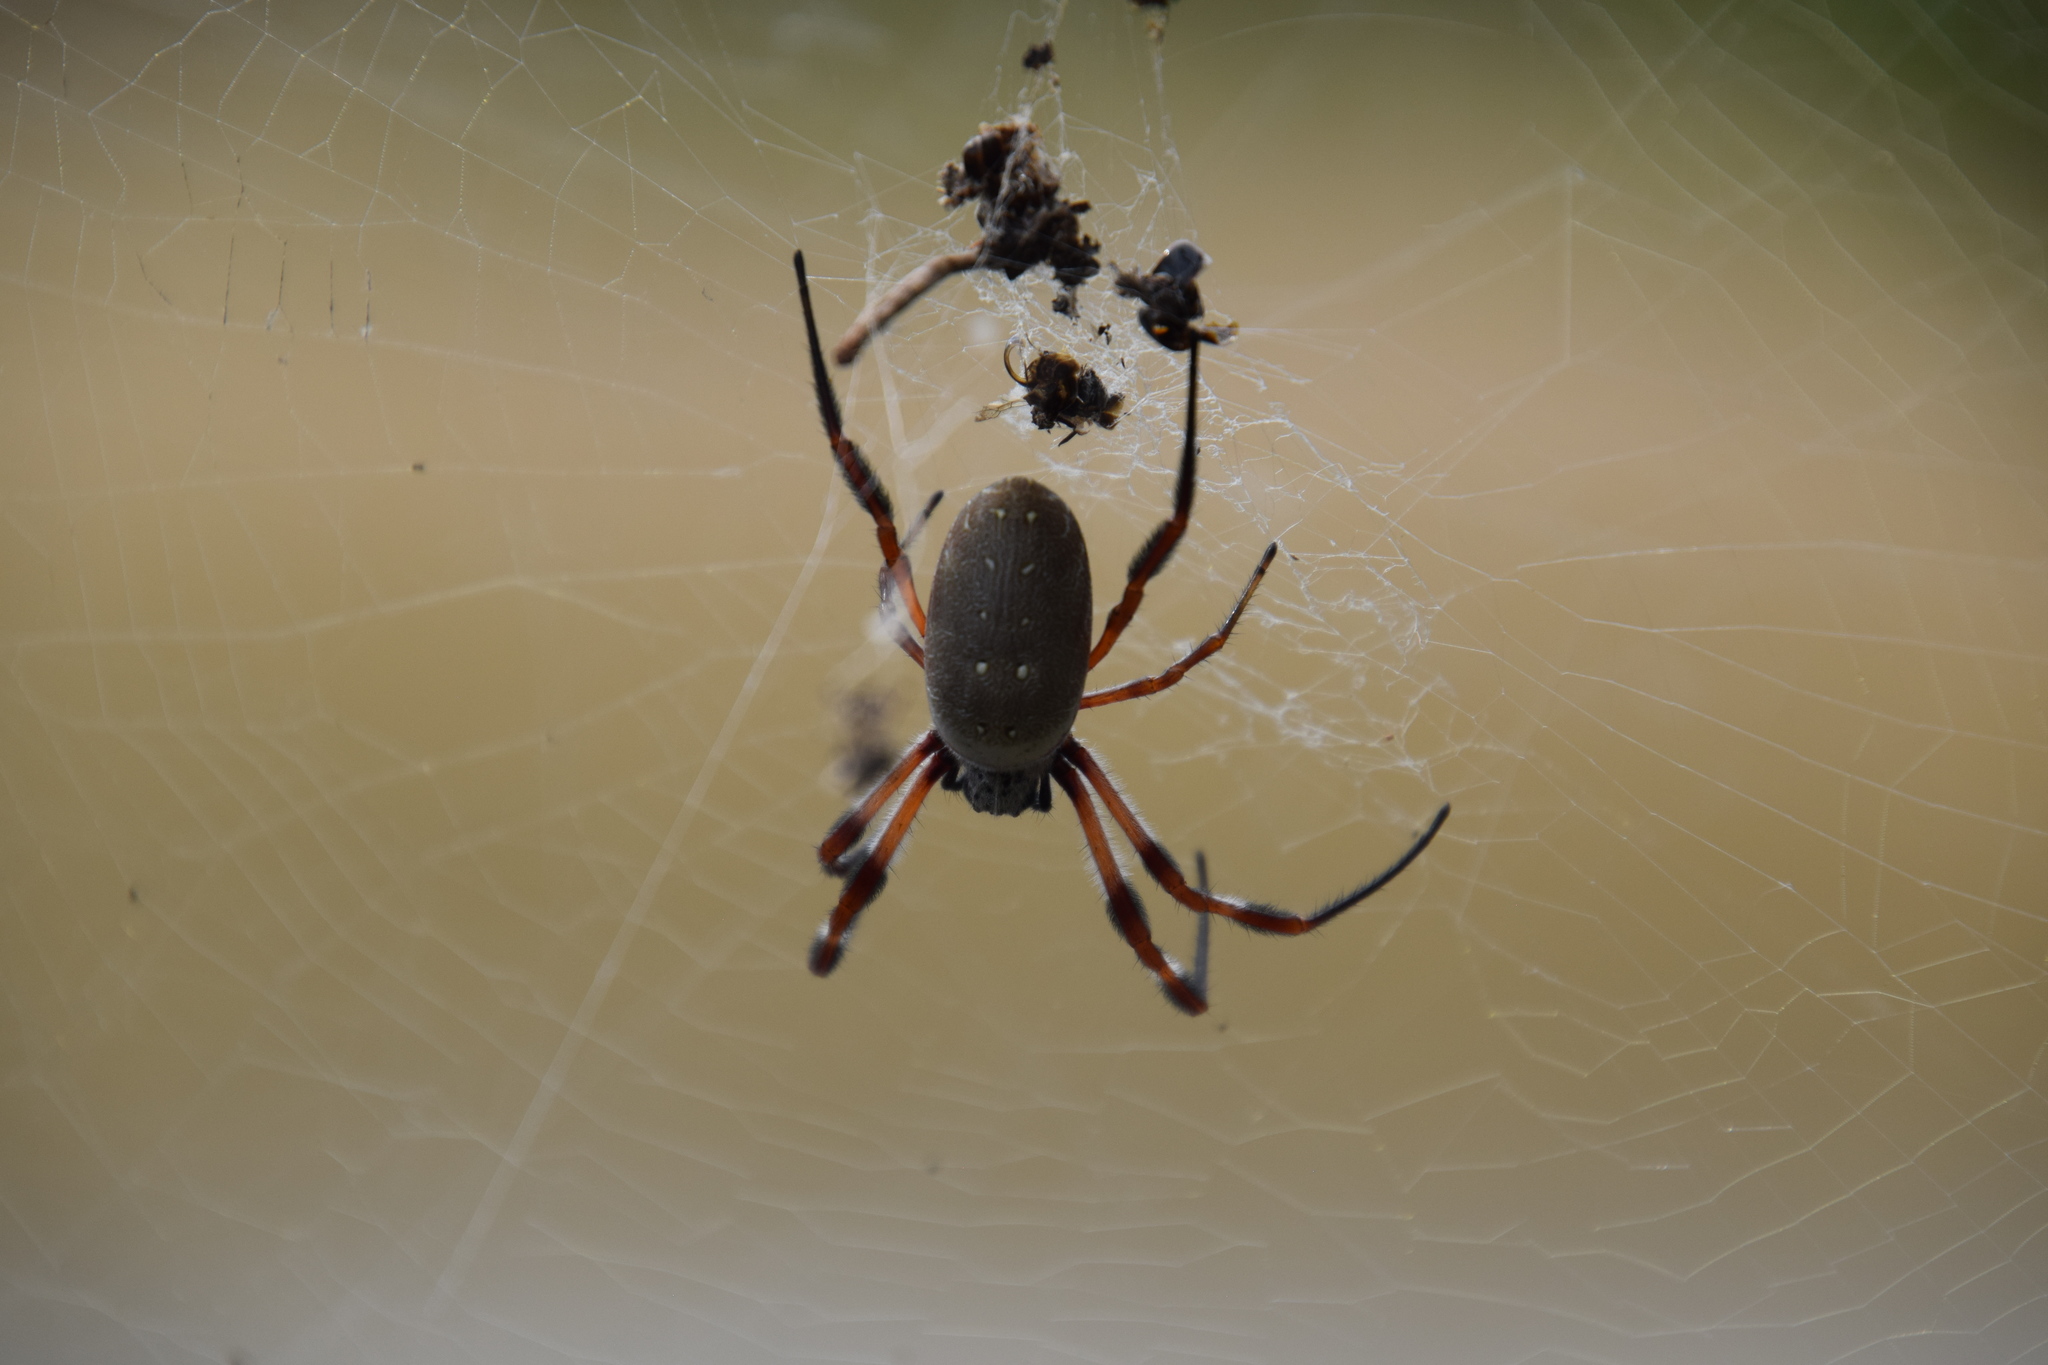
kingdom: Animalia
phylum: Arthropoda
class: Arachnida
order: Araneae
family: Araneidae
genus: Trichonephila
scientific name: Trichonephila edulis
